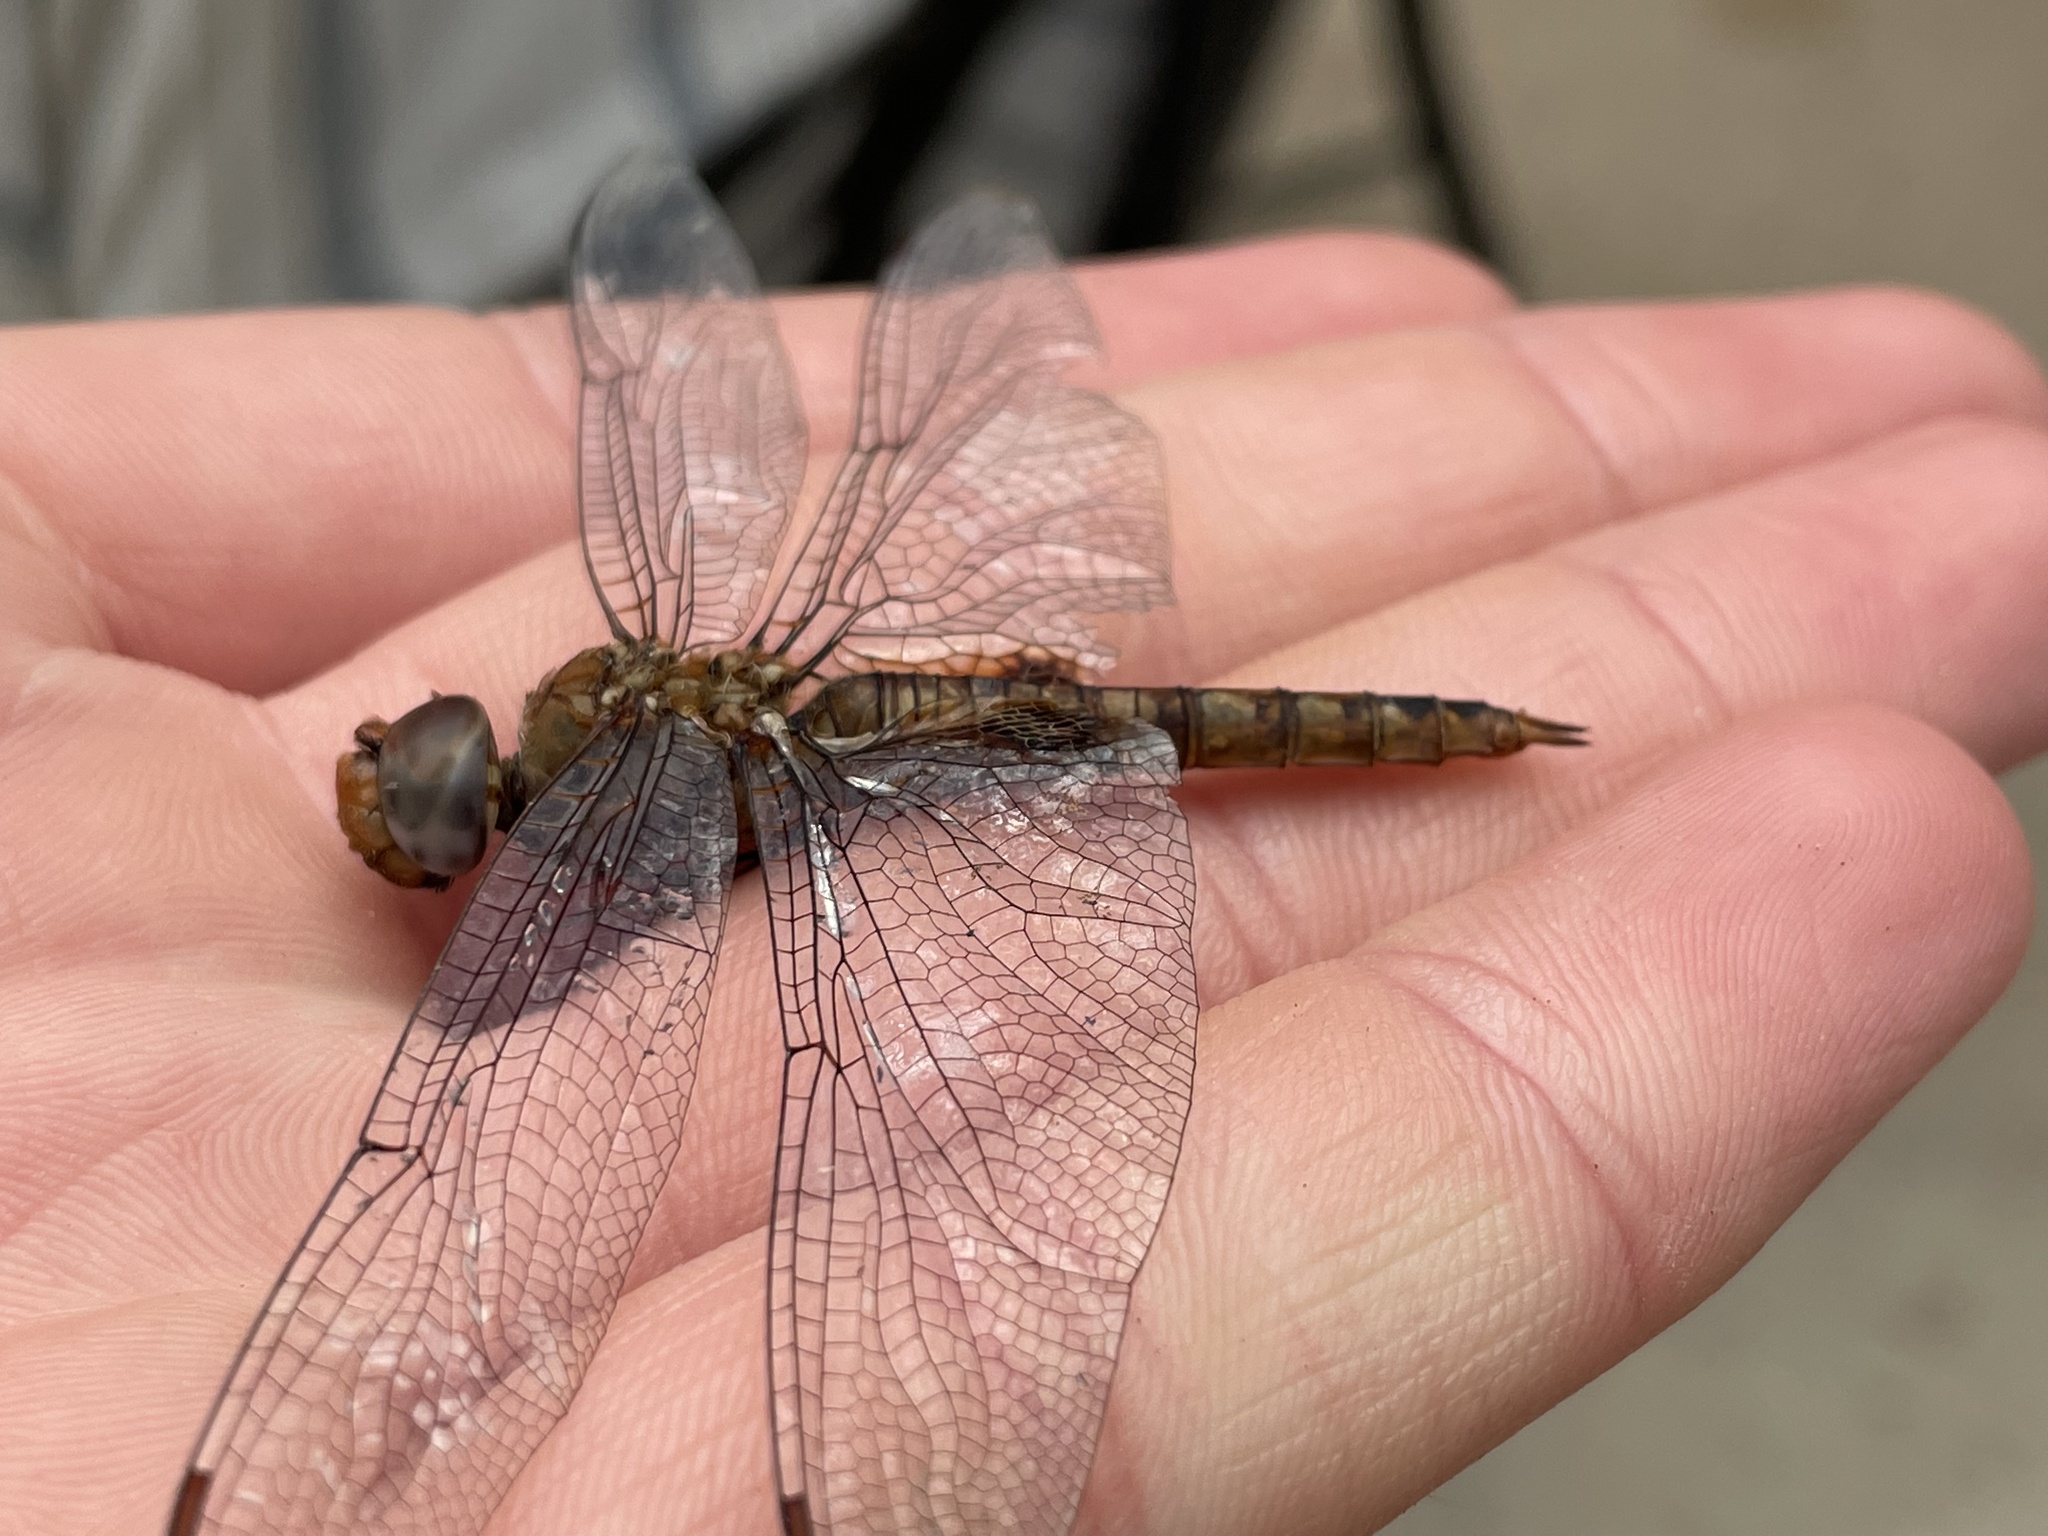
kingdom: Animalia
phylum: Arthropoda
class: Insecta
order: Odonata
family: Libellulidae
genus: Pantala
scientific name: Pantala hymenaea
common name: Spot-winged glider
